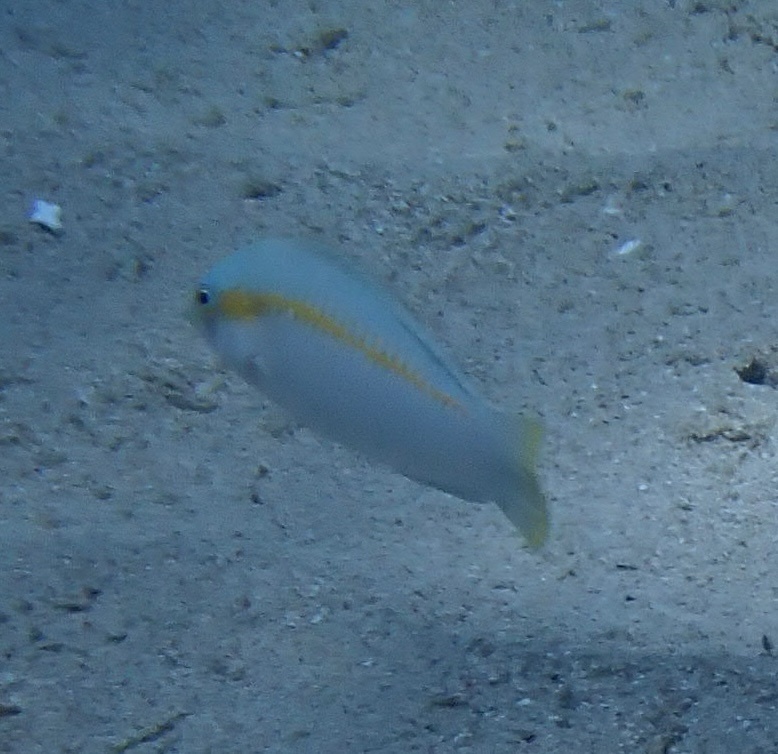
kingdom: Animalia
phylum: Chordata
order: Perciformes
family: Labridae
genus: Halichoeres
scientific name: Halichoeres scapularis
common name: Brownbanded wrasse
